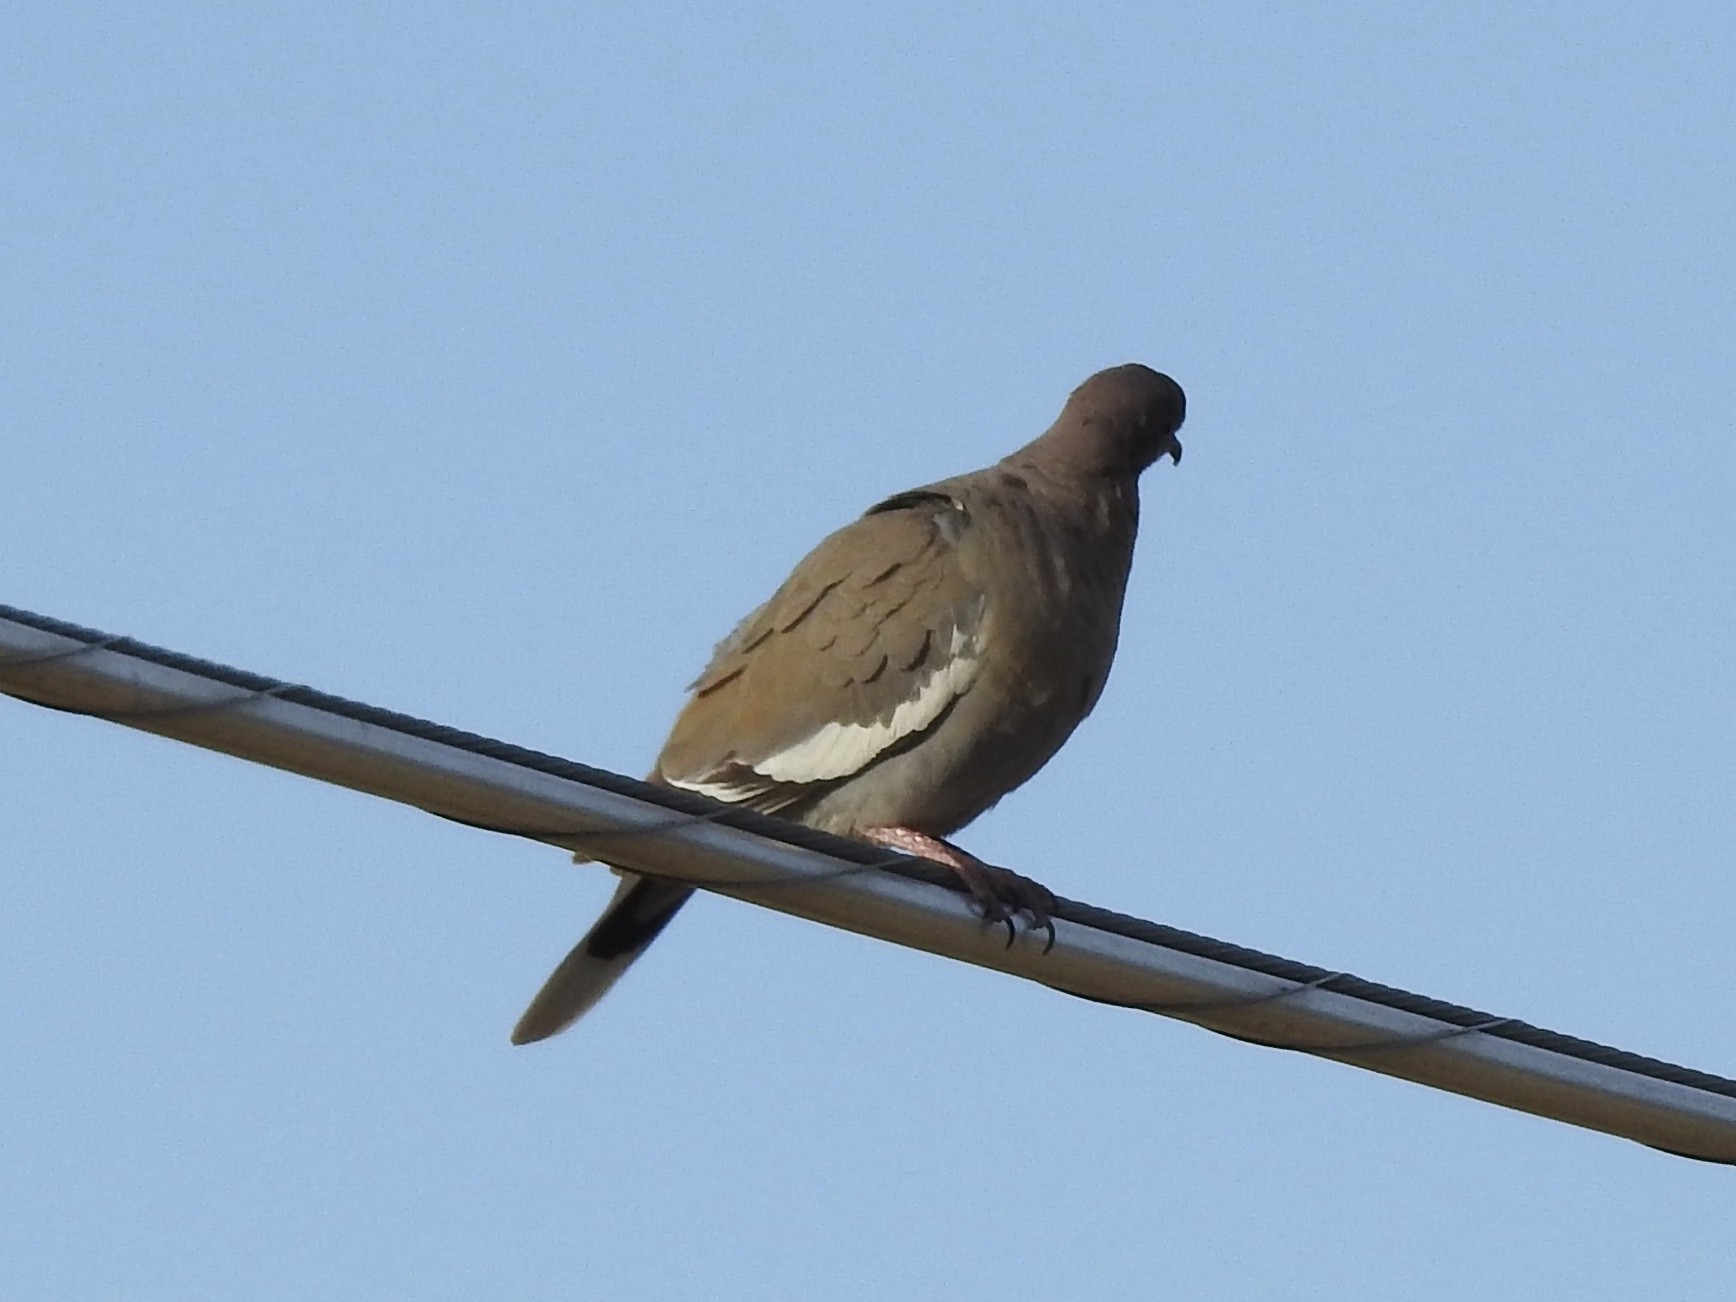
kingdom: Animalia
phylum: Chordata
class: Aves
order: Columbiformes
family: Columbidae
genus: Zenaida
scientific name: Zenaida asiatica
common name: White-winged dove
